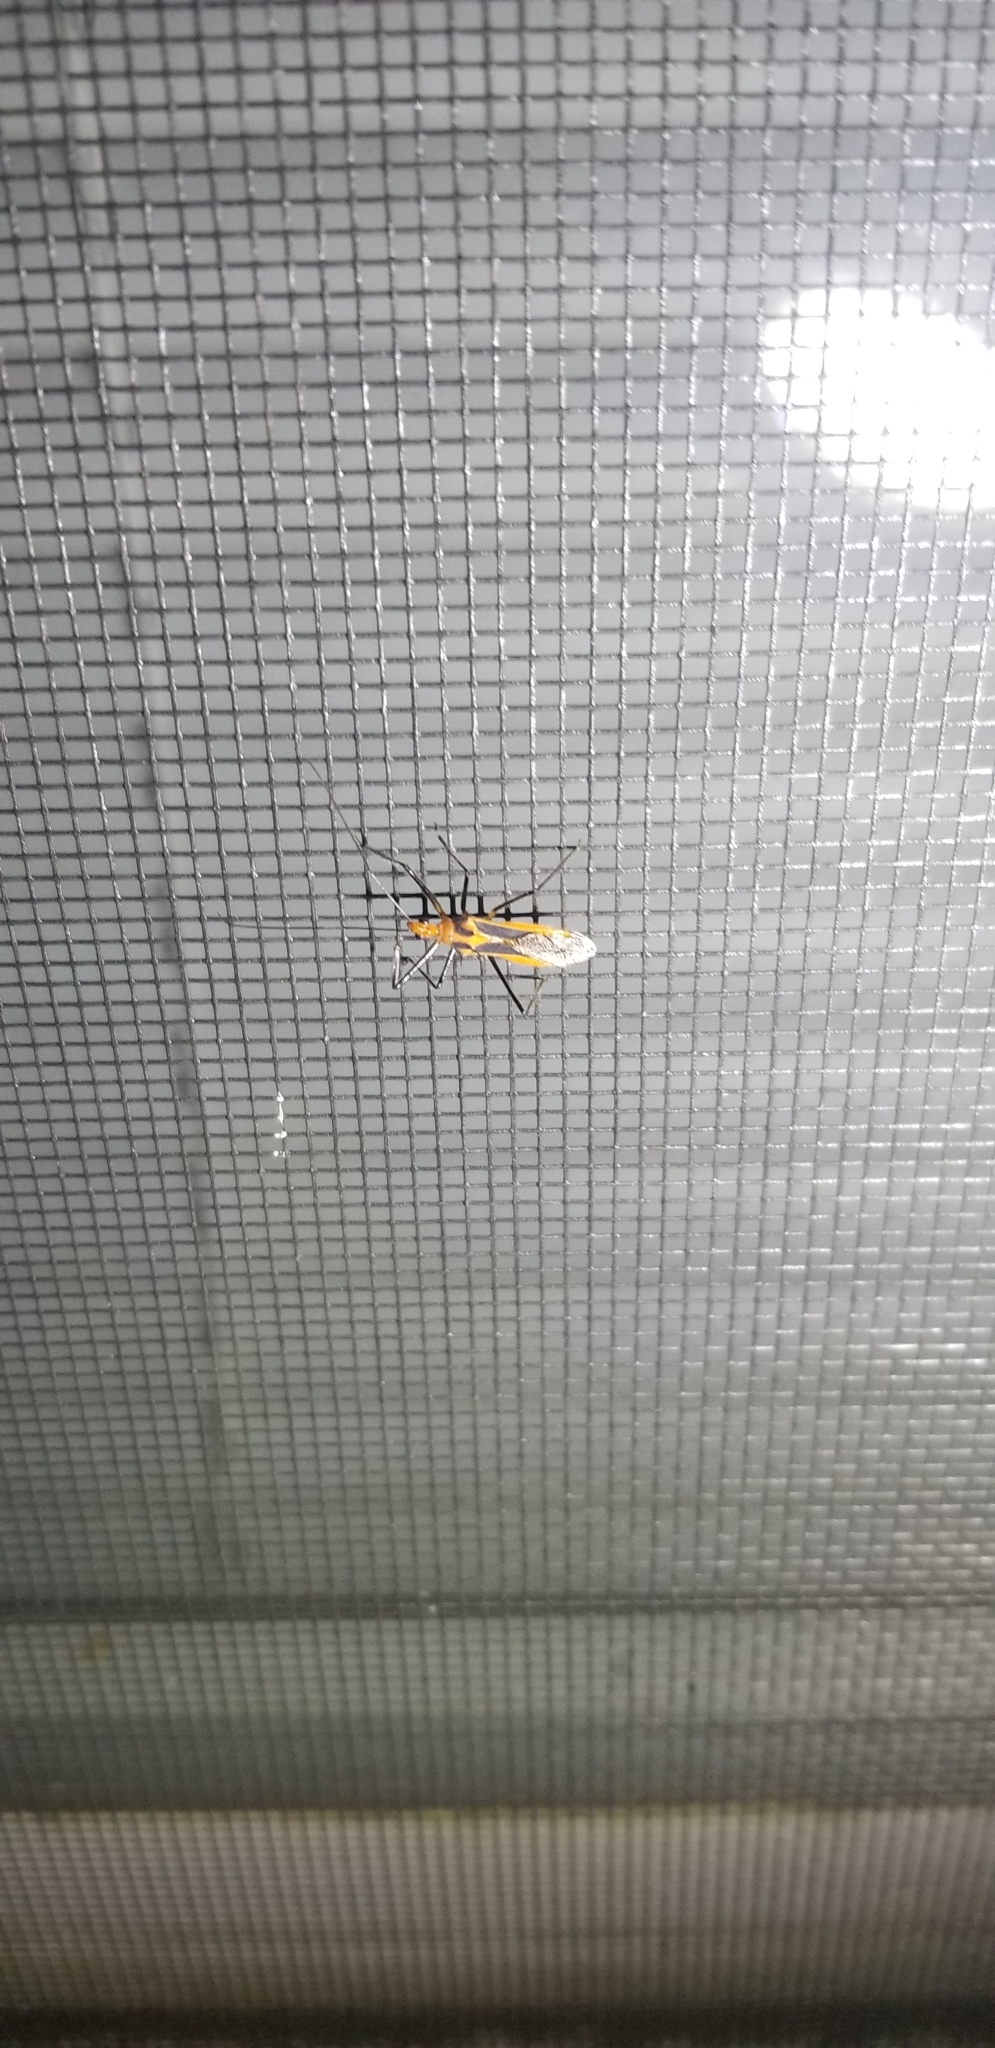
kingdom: Animalia
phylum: Arthropoda
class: Insecta
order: Hemiptera
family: Reduviidae
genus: Repipta
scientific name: Repipta taurus
